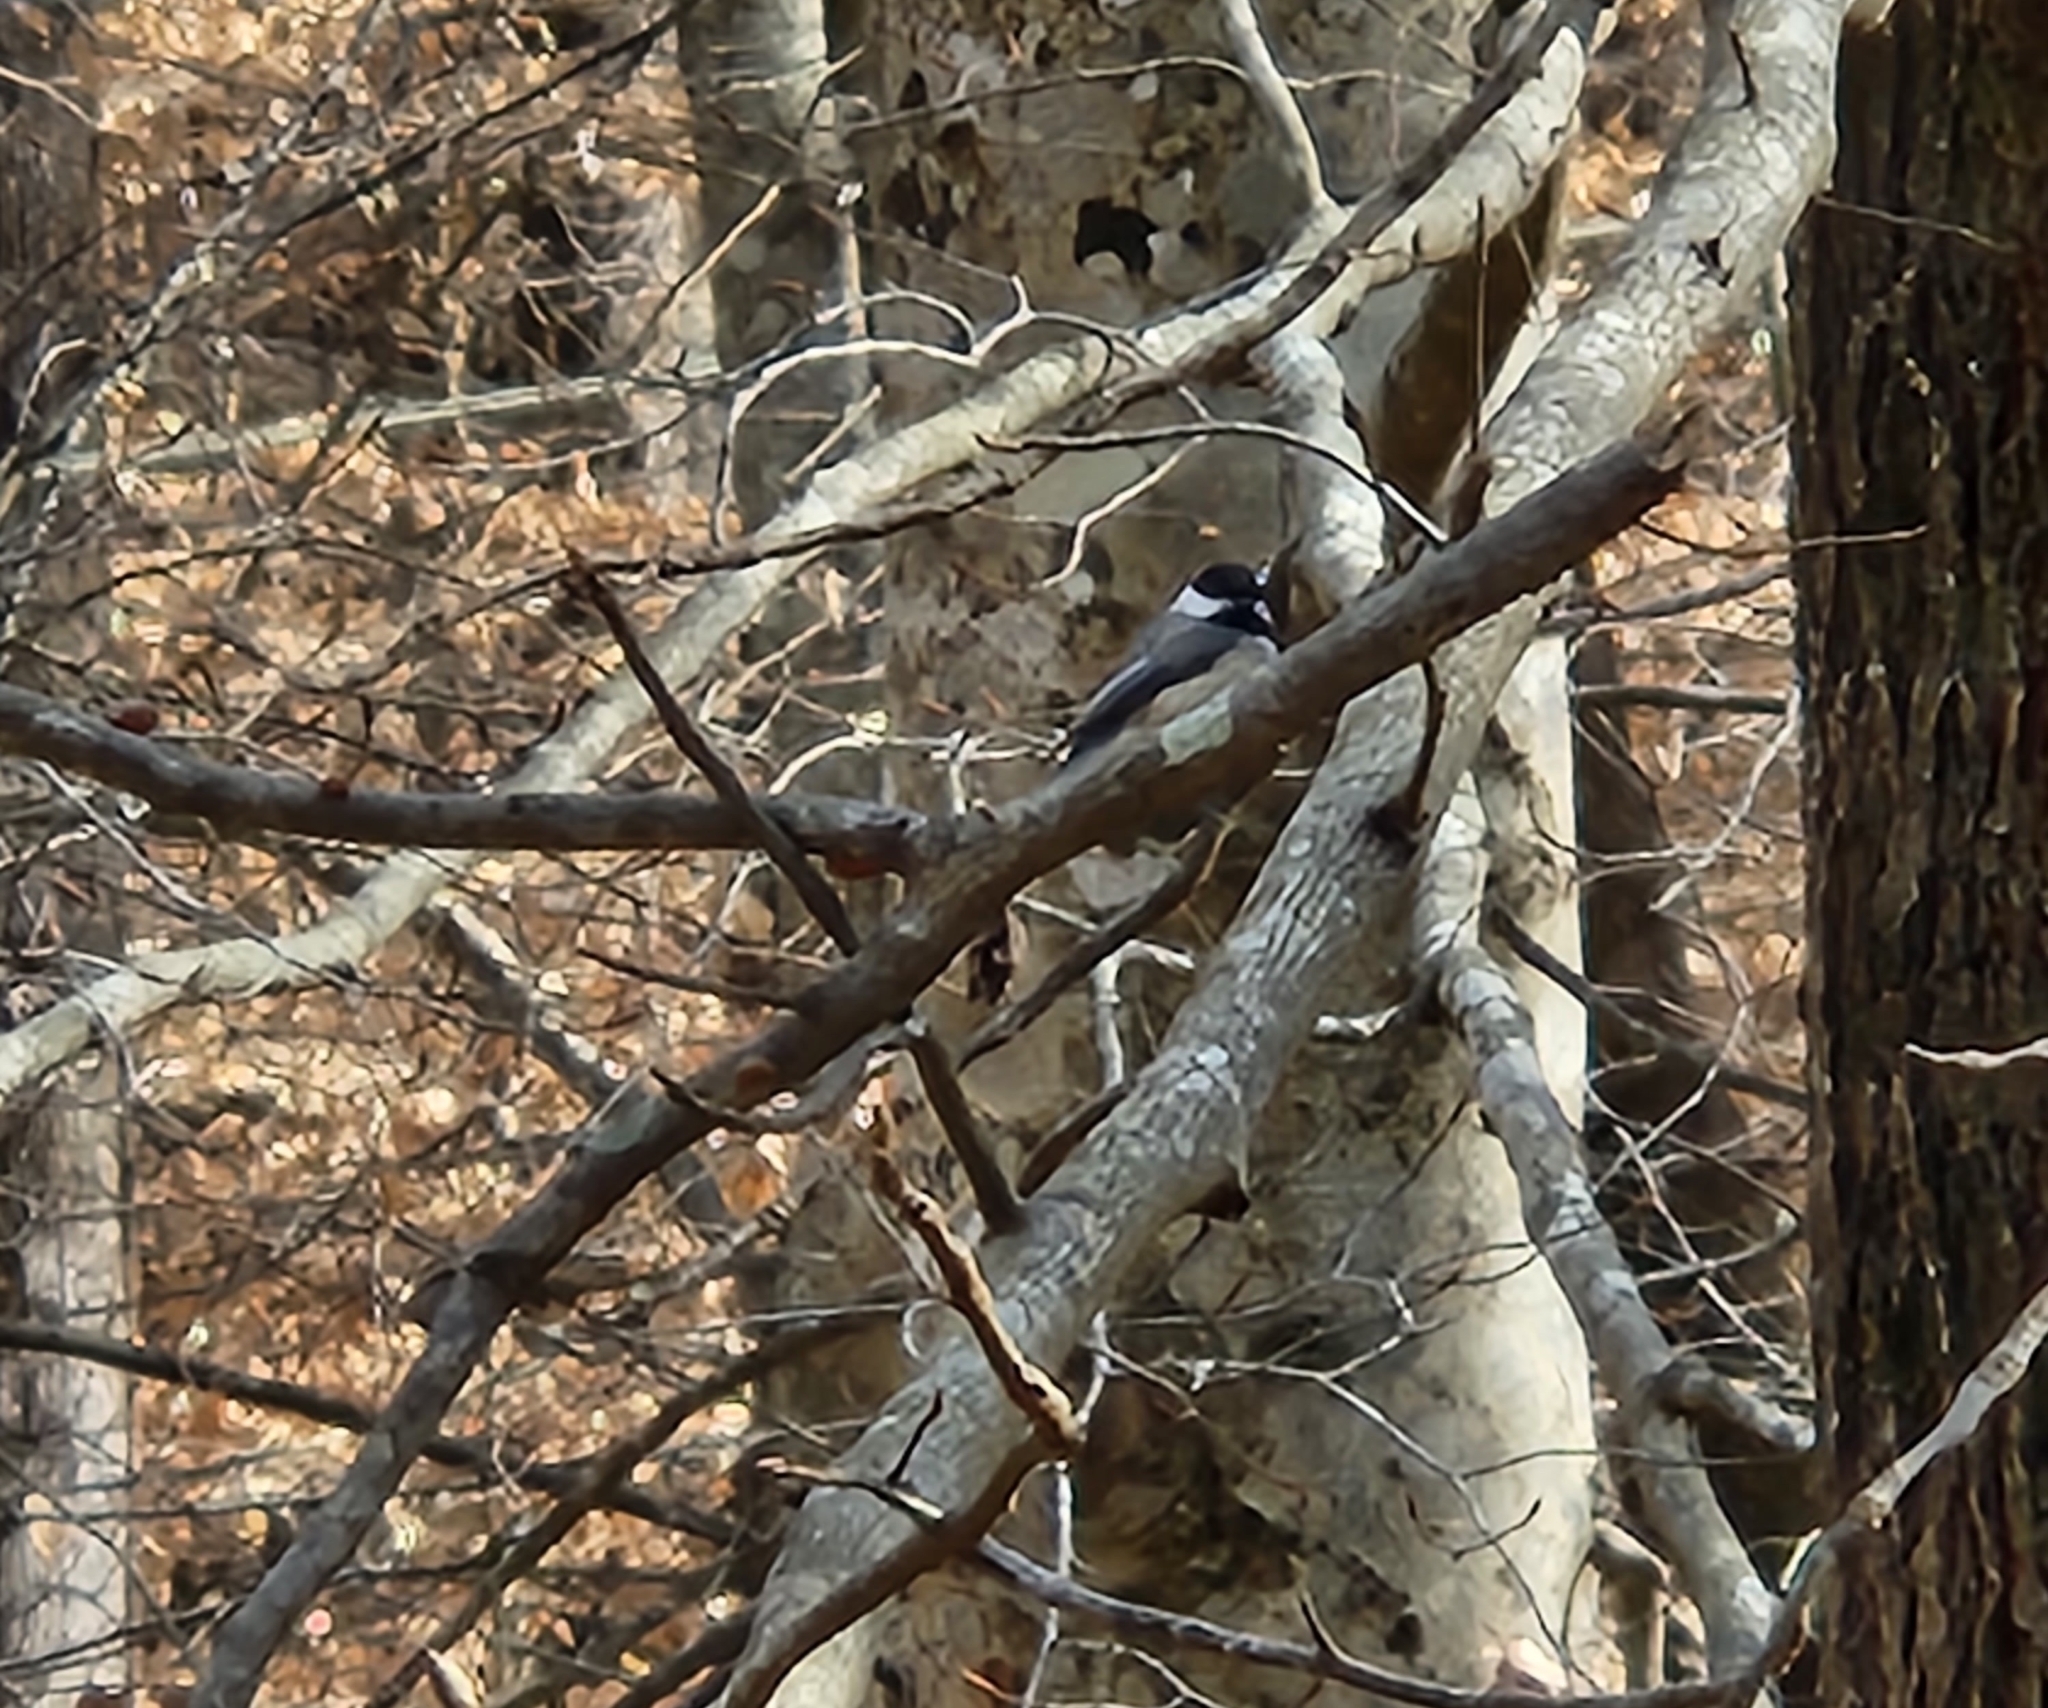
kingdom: Animalia
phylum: Chordata
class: Aves
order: Passeriformes
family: Paridae
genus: Poecile
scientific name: Poecile carolinensis
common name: Carolina chickadee
